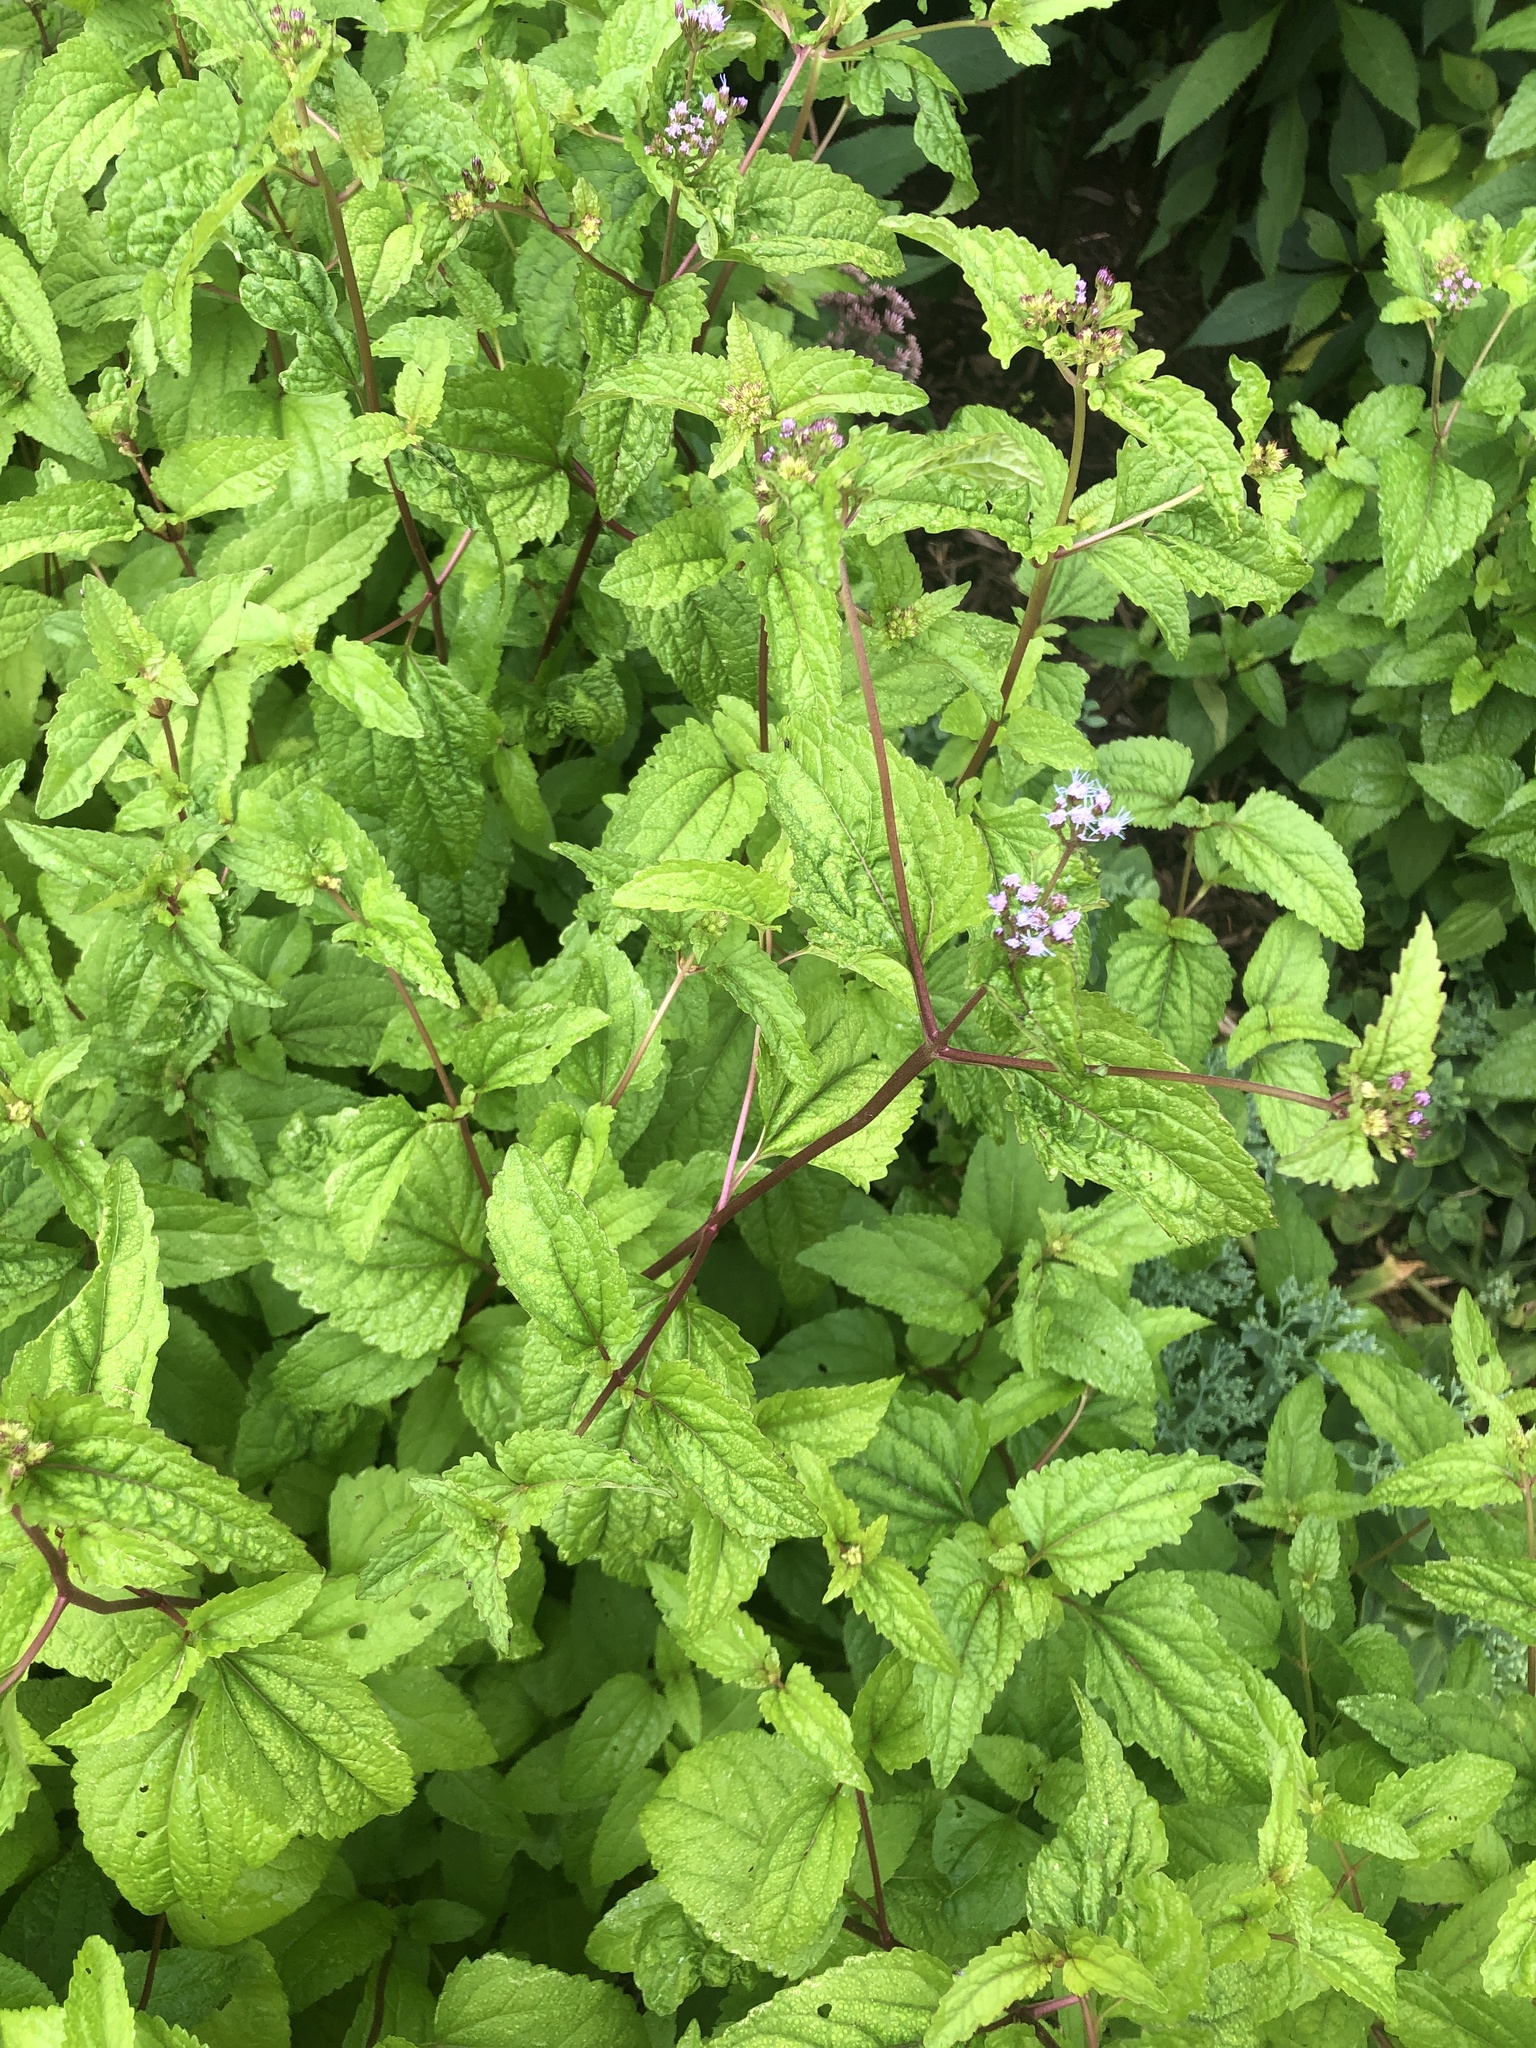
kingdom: Plantae
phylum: Tracheophyta
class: Magnoliopsida
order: Asterales
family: Asteraceae
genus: Conoclinium
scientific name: Conoclinium coelestinum
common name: Blue mistflower
